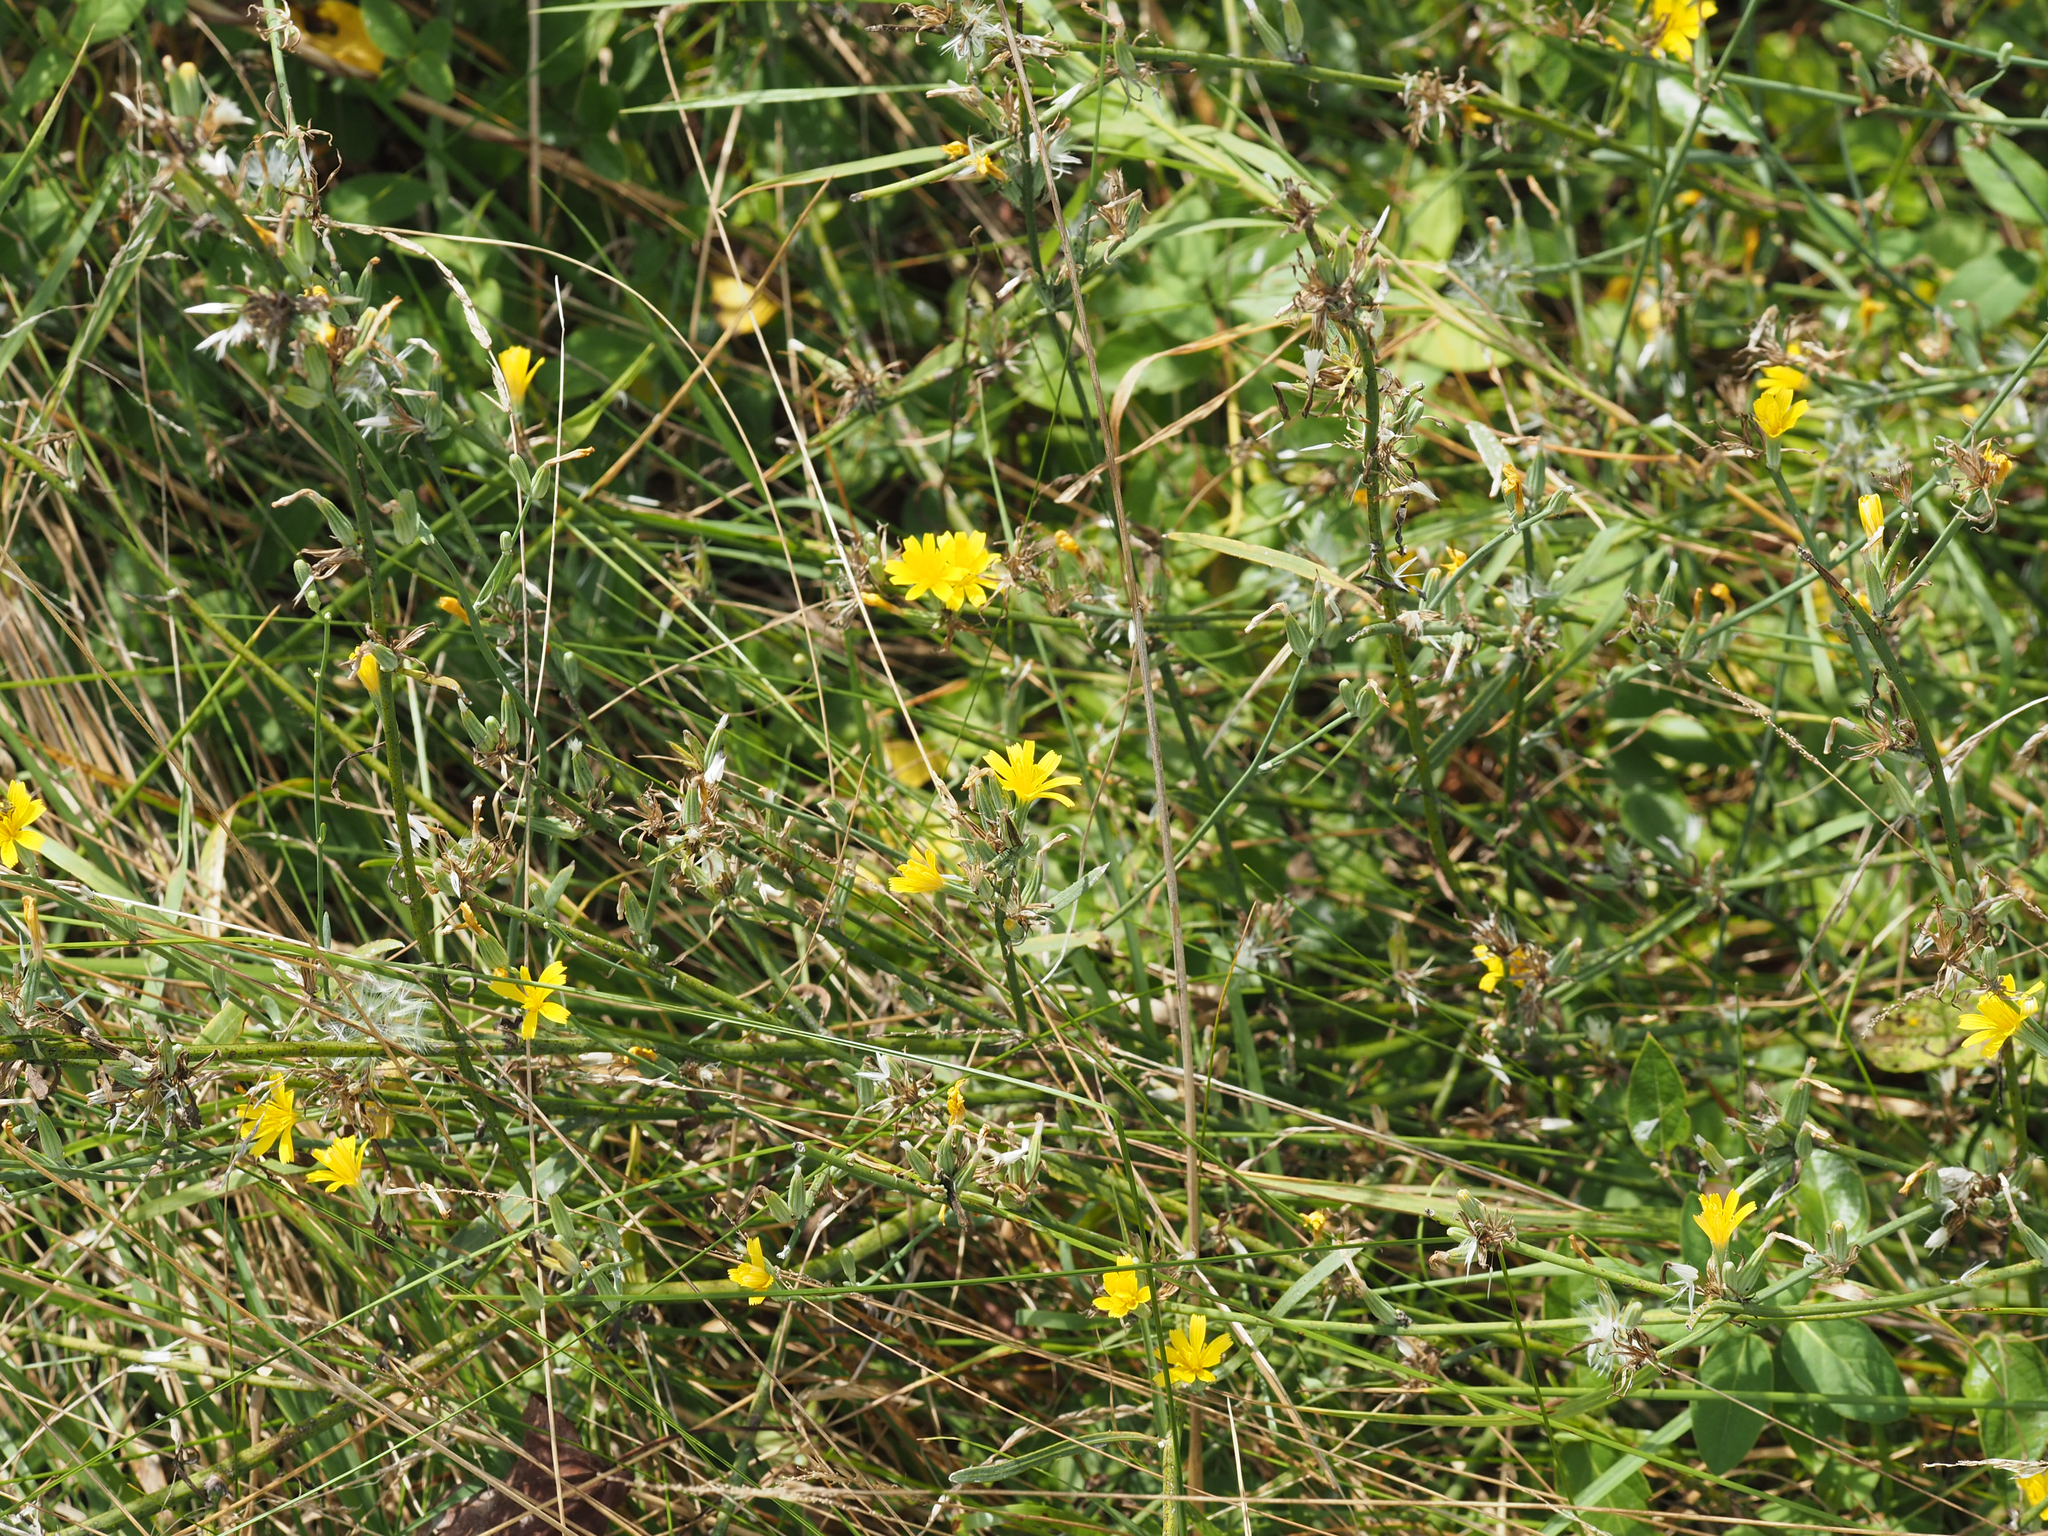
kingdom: Plantae
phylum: Tracheophyta
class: Magnoliopsida
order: Asterales
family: Asteraceae
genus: Chondrilla
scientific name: Chondrilla juncea
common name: Skeleton weed
